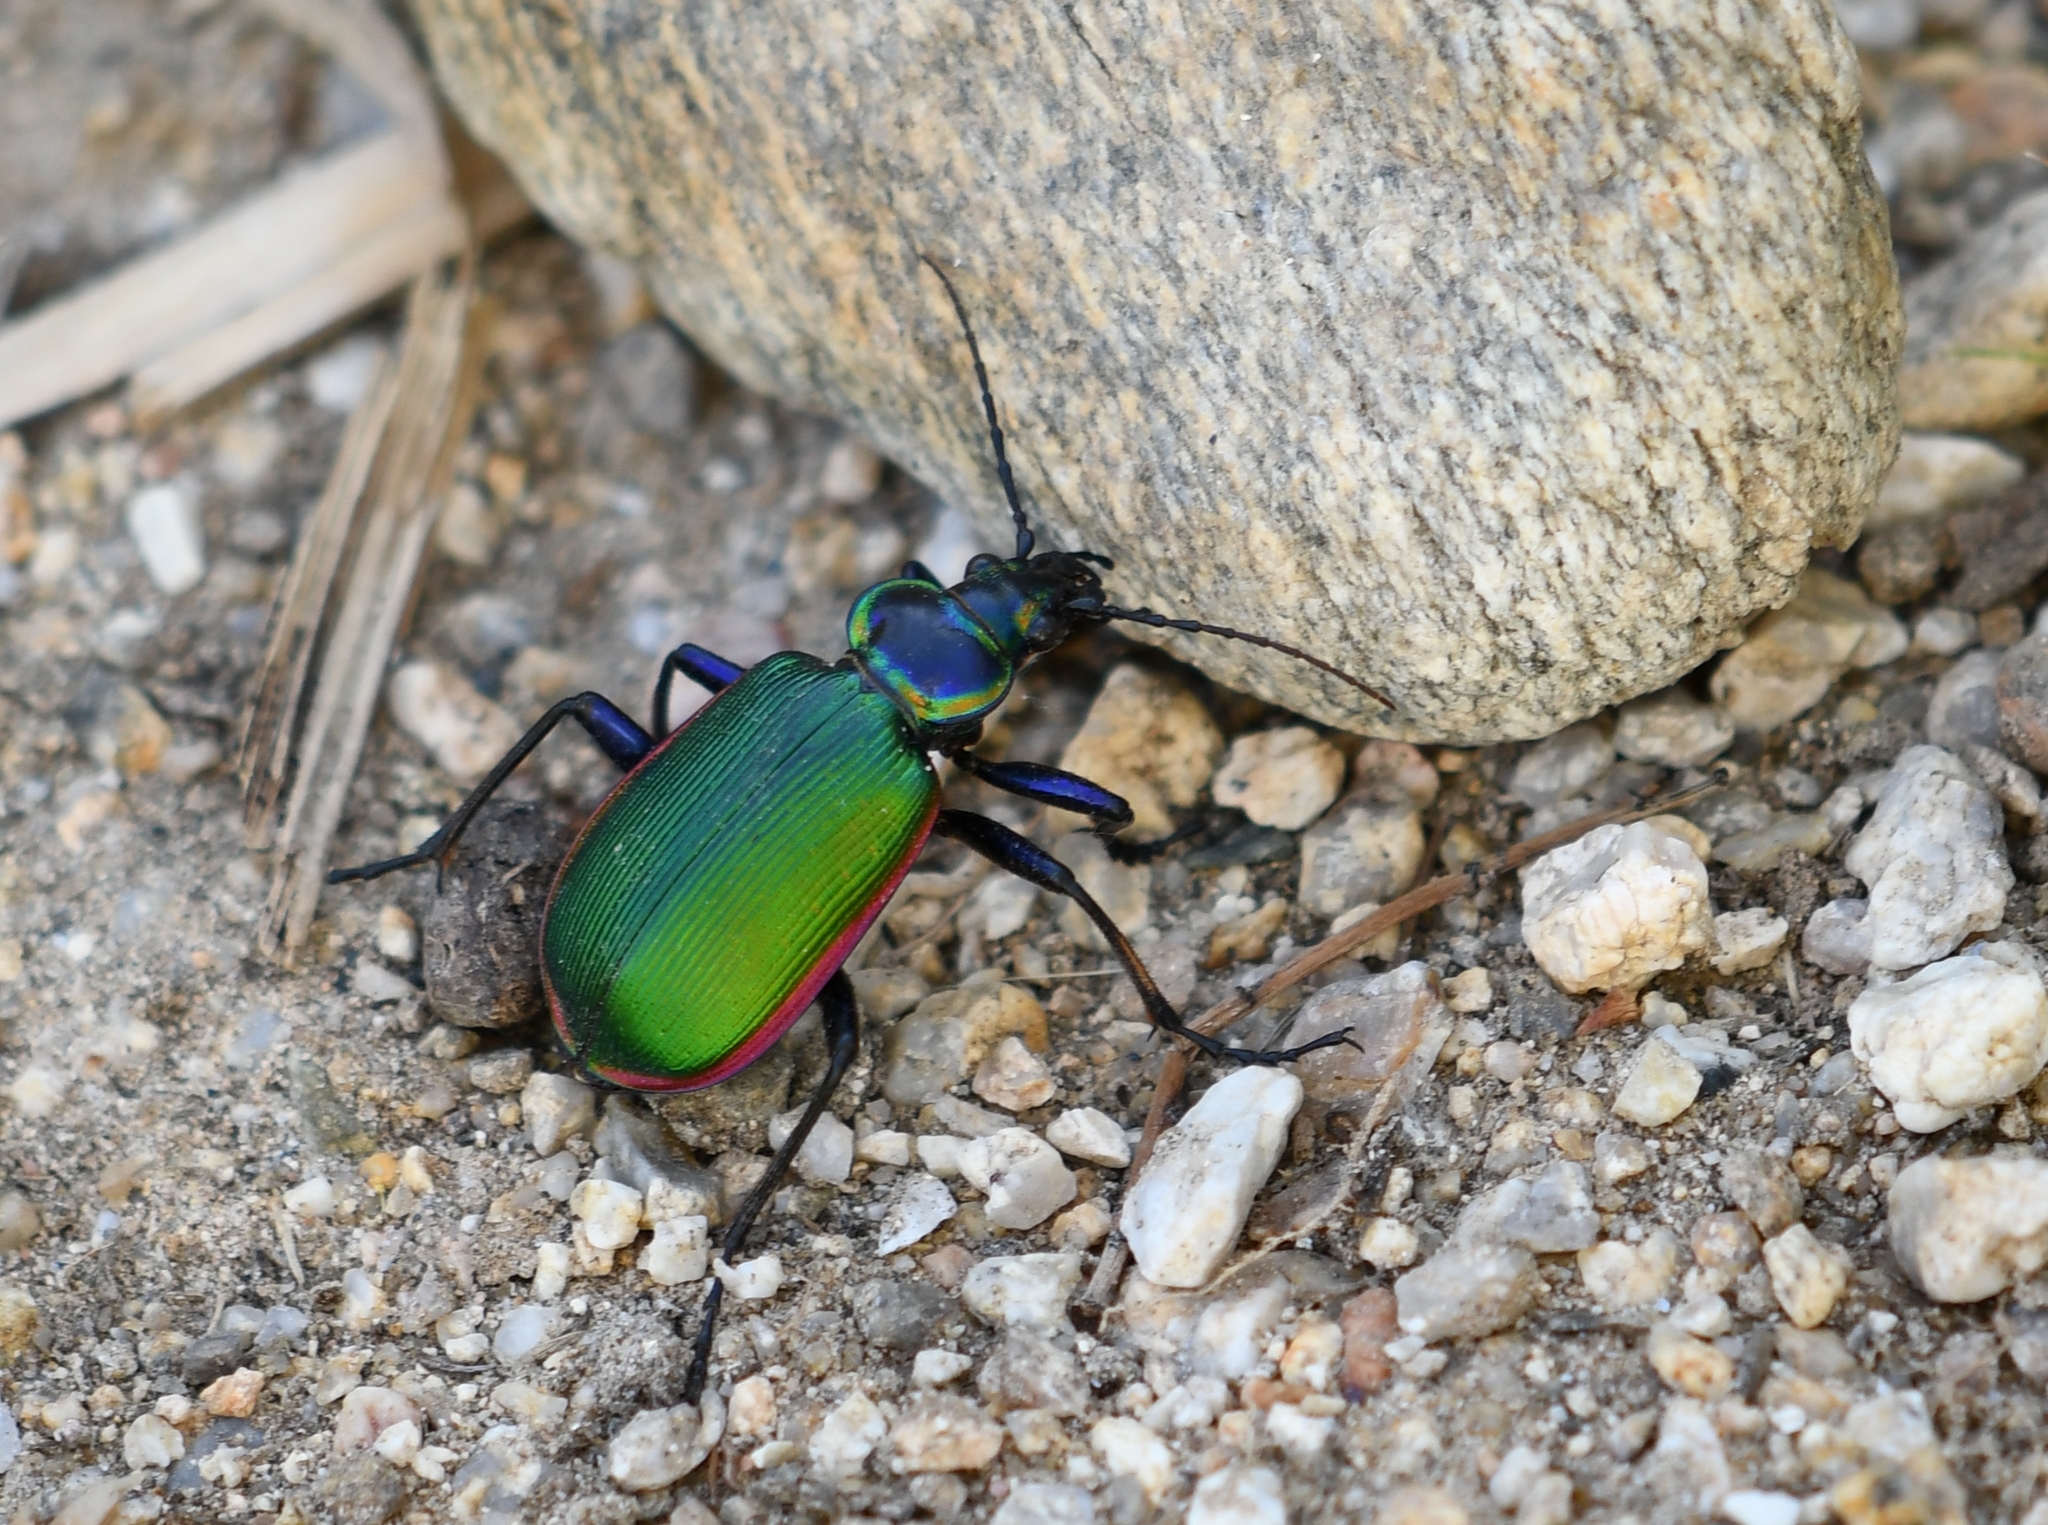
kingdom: Animalia
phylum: Arthropoda
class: Insecta
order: Coleoptera
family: Carabidae
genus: Calosoma
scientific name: Calosoma scrutator
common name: Fiery searcher beetle
